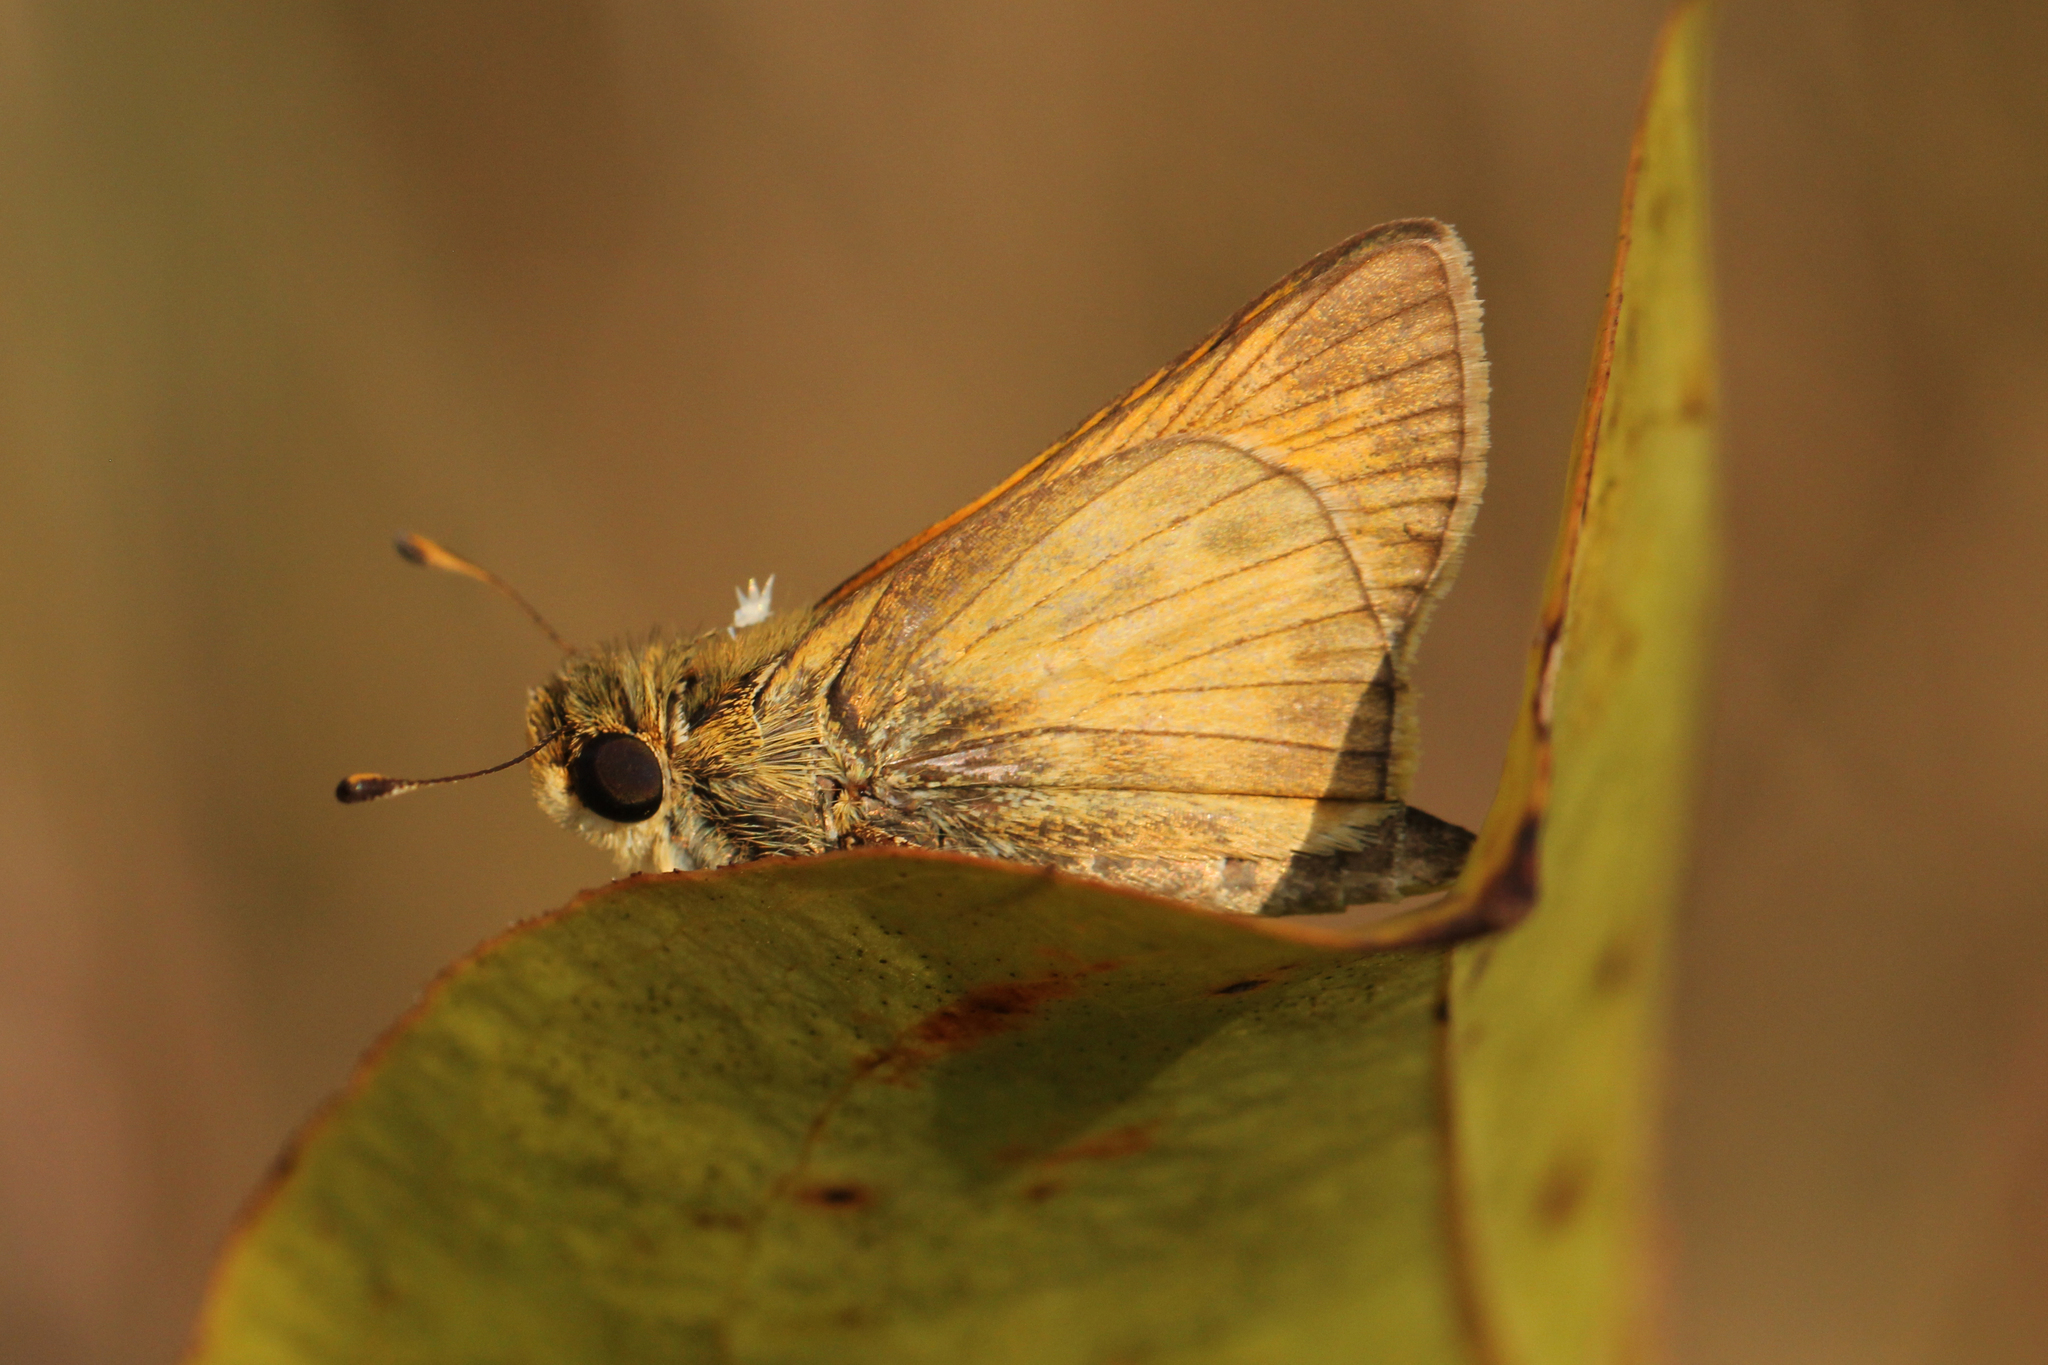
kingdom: Animalia
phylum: Arthropoda
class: Insecta
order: Lepidoptera
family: Hesperiidae
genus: Atalopedes
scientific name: Atalopedes
